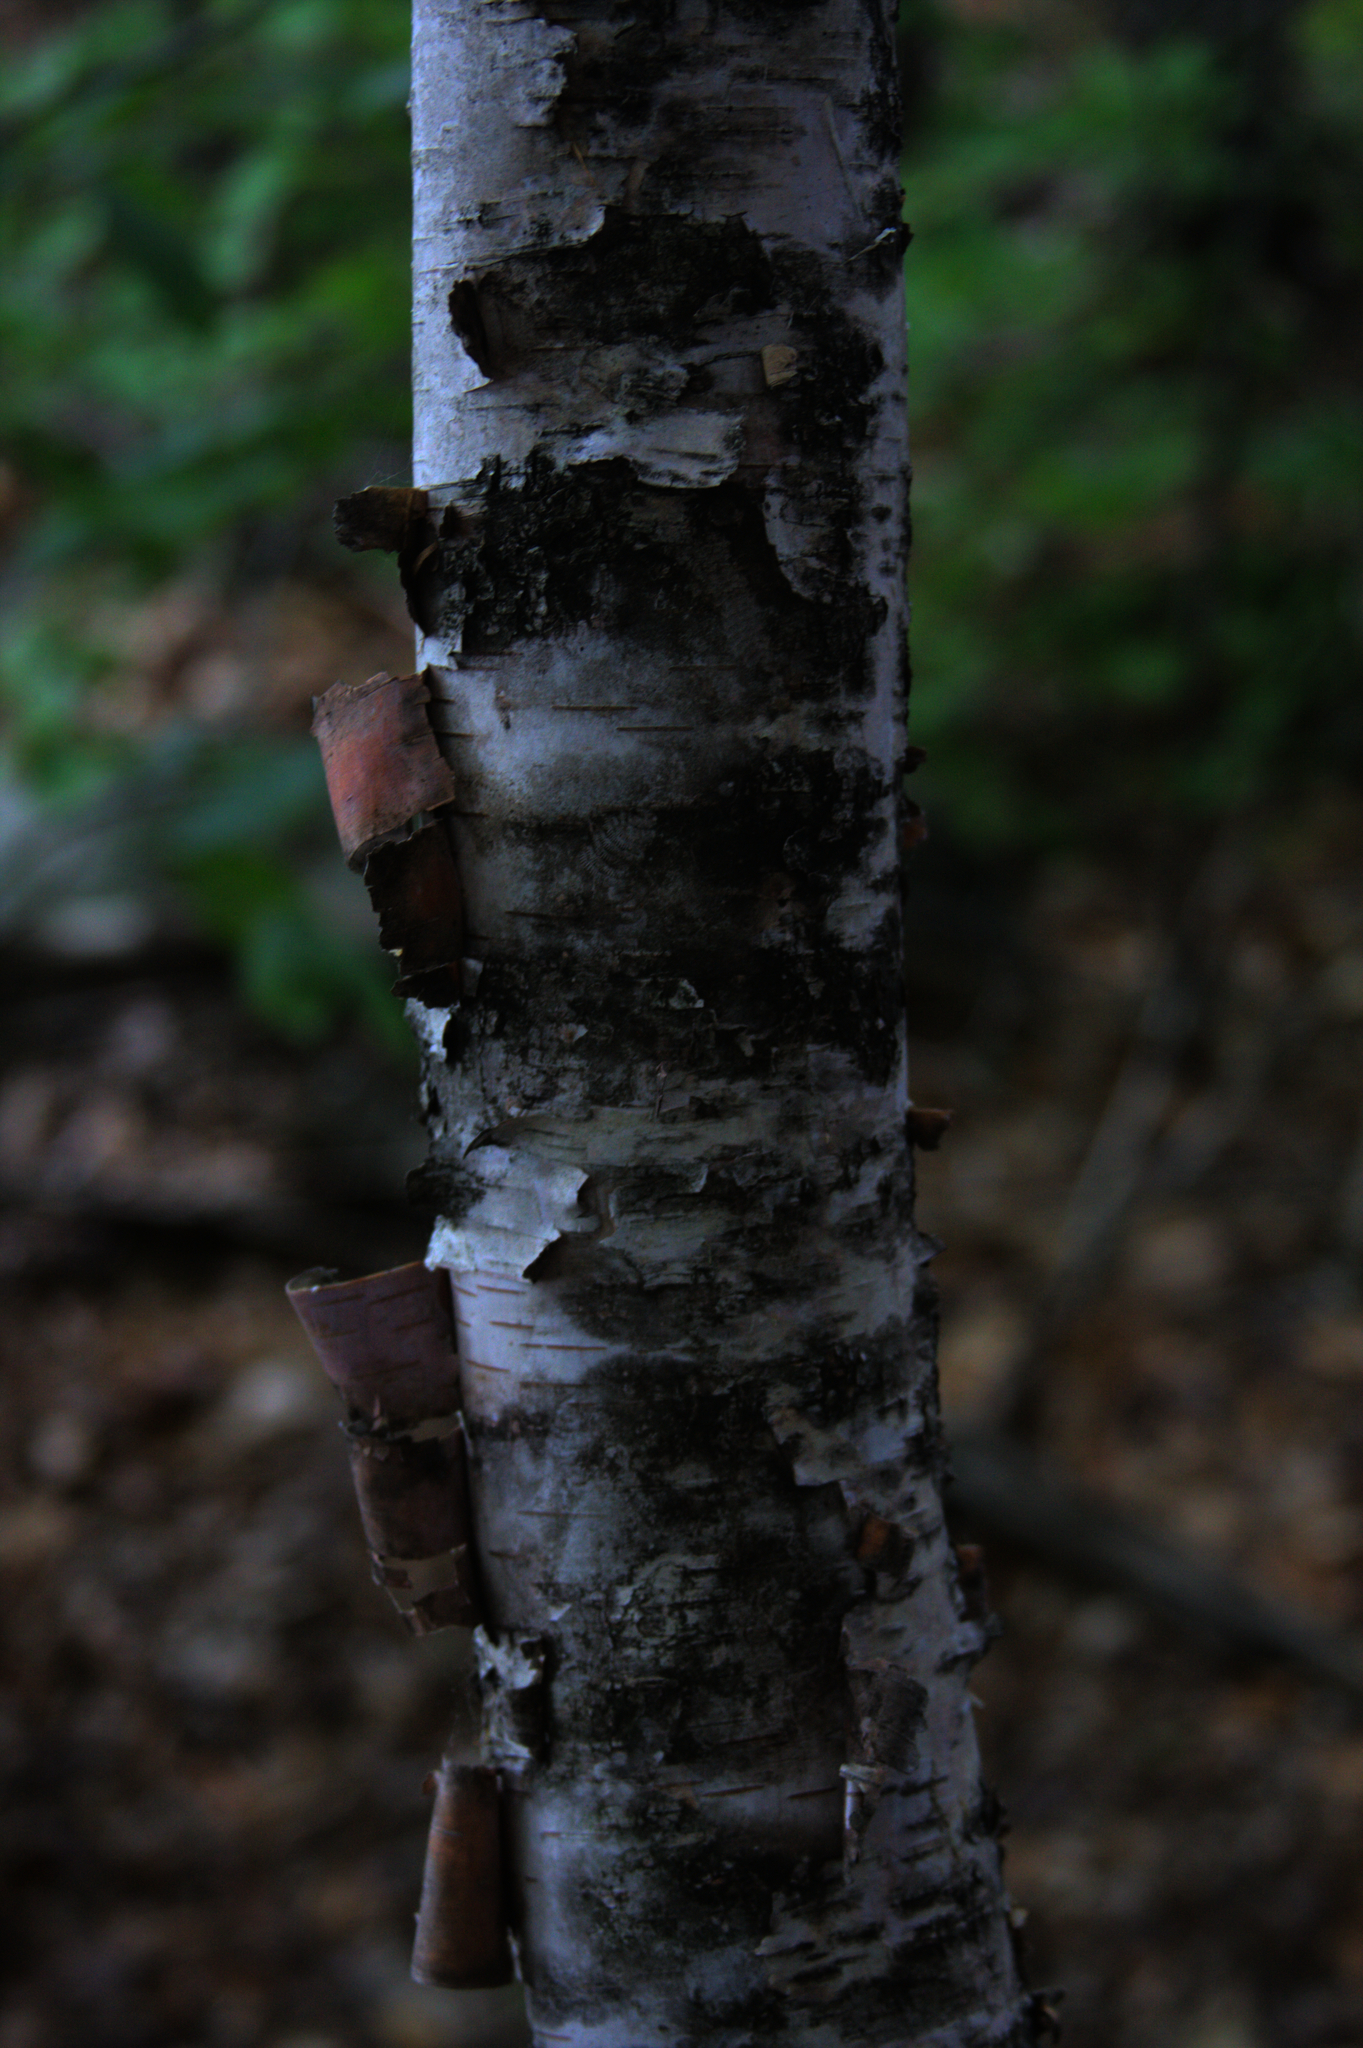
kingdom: Plantae
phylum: Tracheophyta
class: Magnoliopsida
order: Fagales
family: Betulaceae
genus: Betula
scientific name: Betula papyrifera
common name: Paper birch
